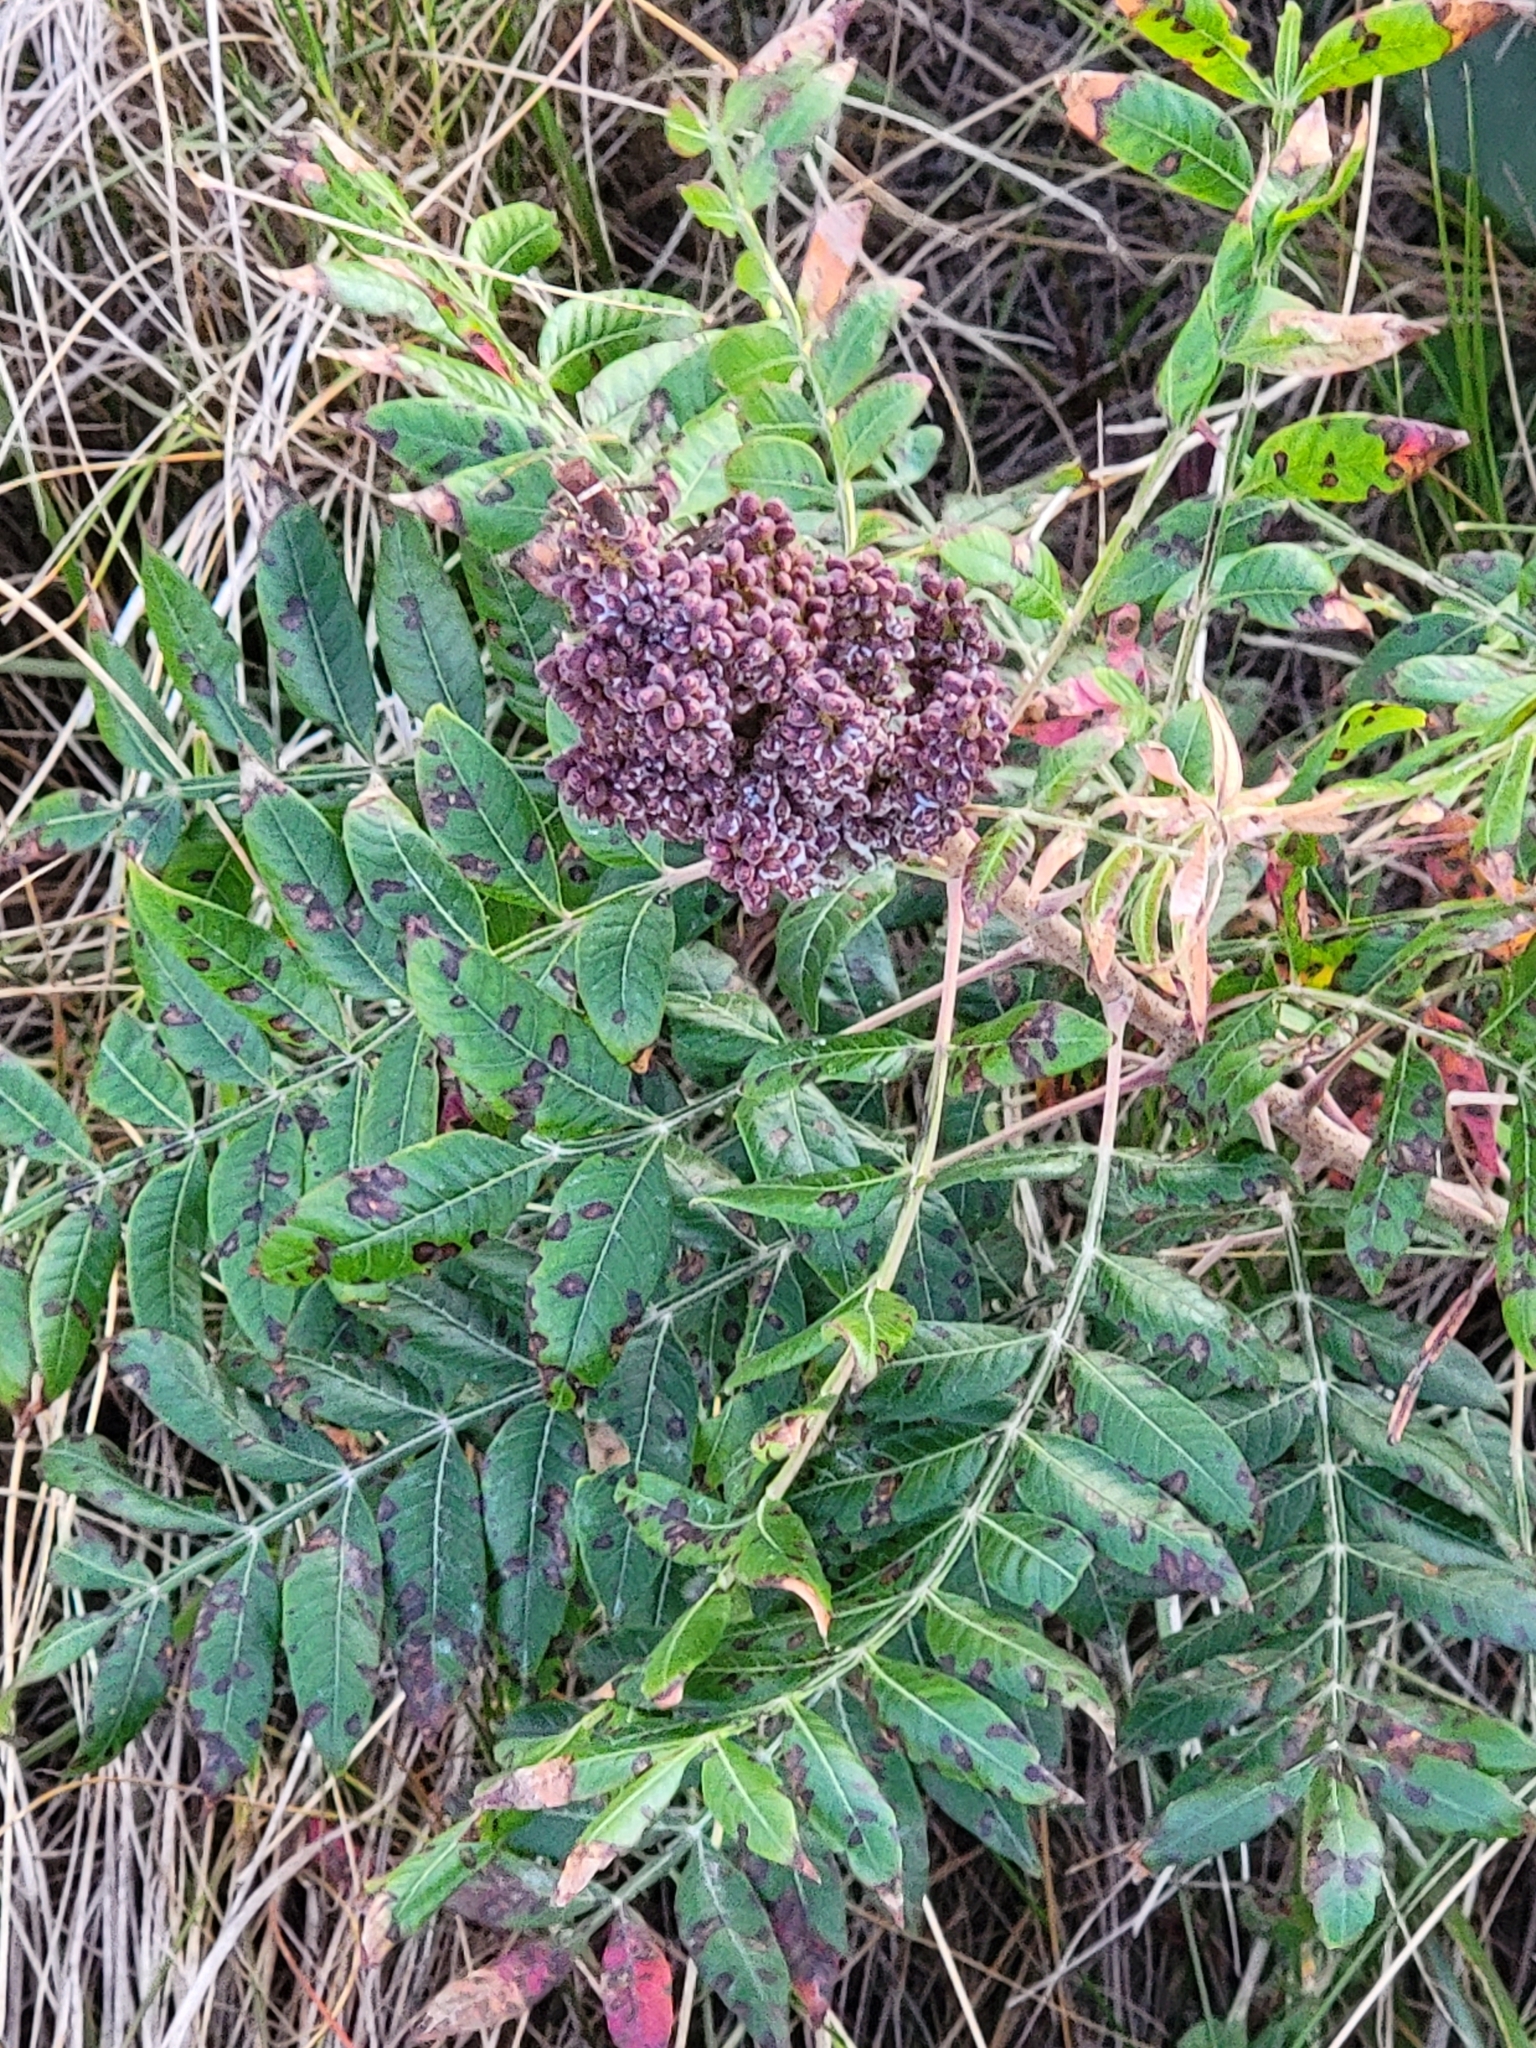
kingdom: Plantae
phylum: Tracheophyta
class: Magnoliopsida
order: Sapindales
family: Anacardiaceae
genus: Rhus
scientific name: Rhus copallina
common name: Shining sumac
